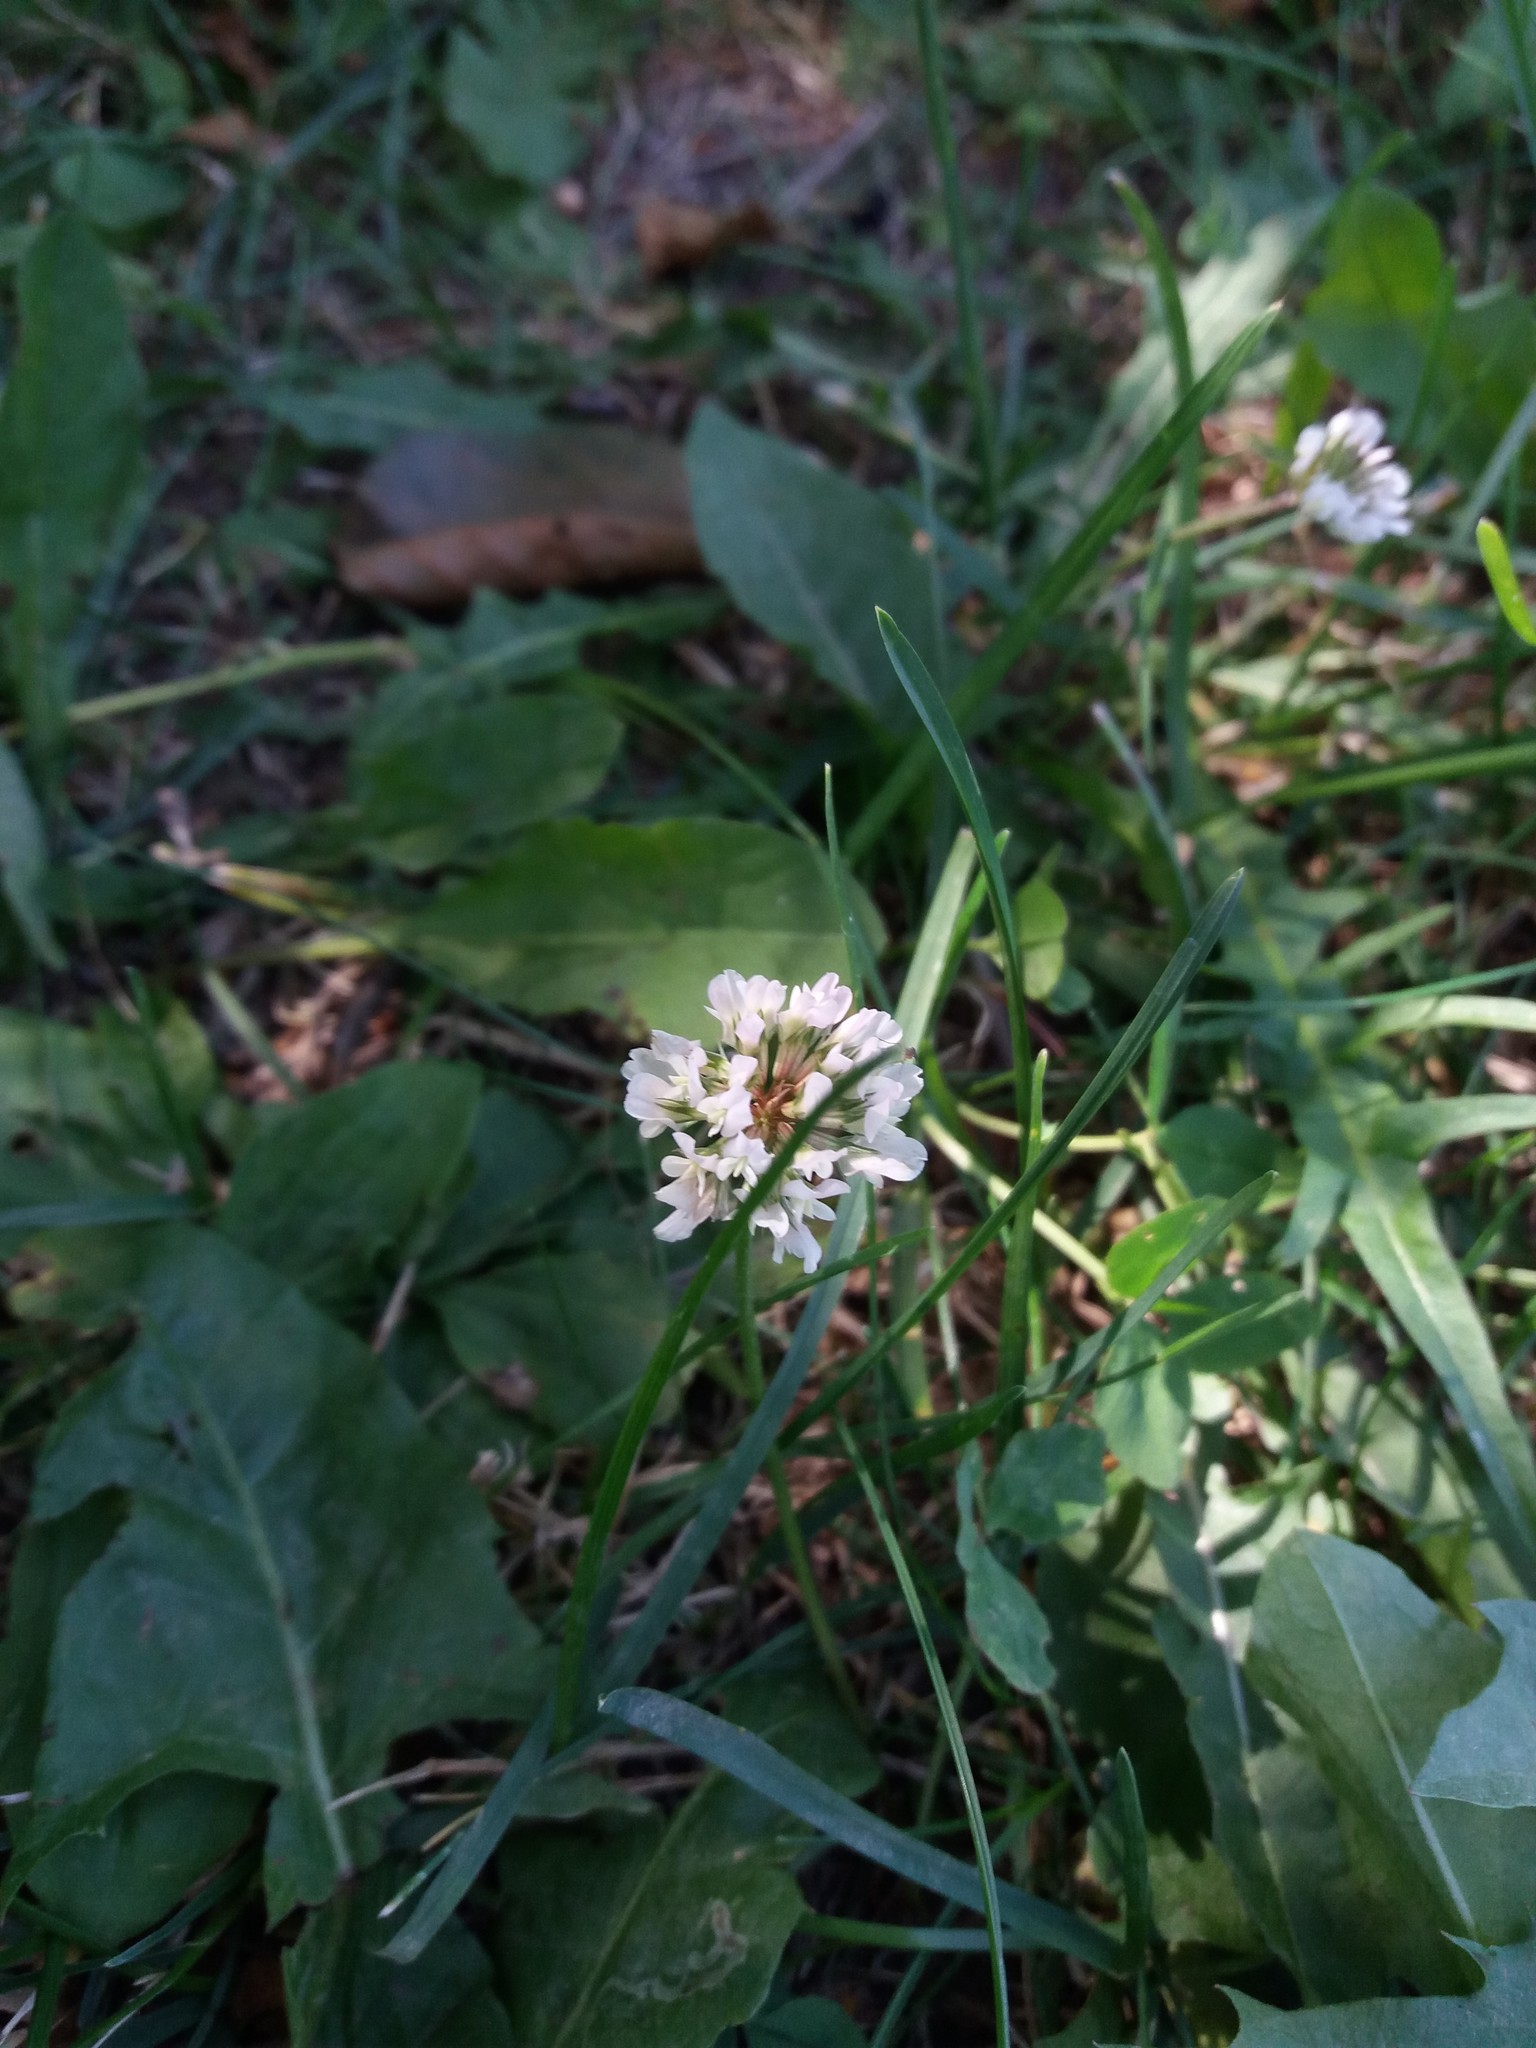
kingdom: Plantae
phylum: Tracheophyta
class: Magnoliopsida
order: Fabales
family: Fabaceae
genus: Trifolium
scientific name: Trifolium repens
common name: White clover
